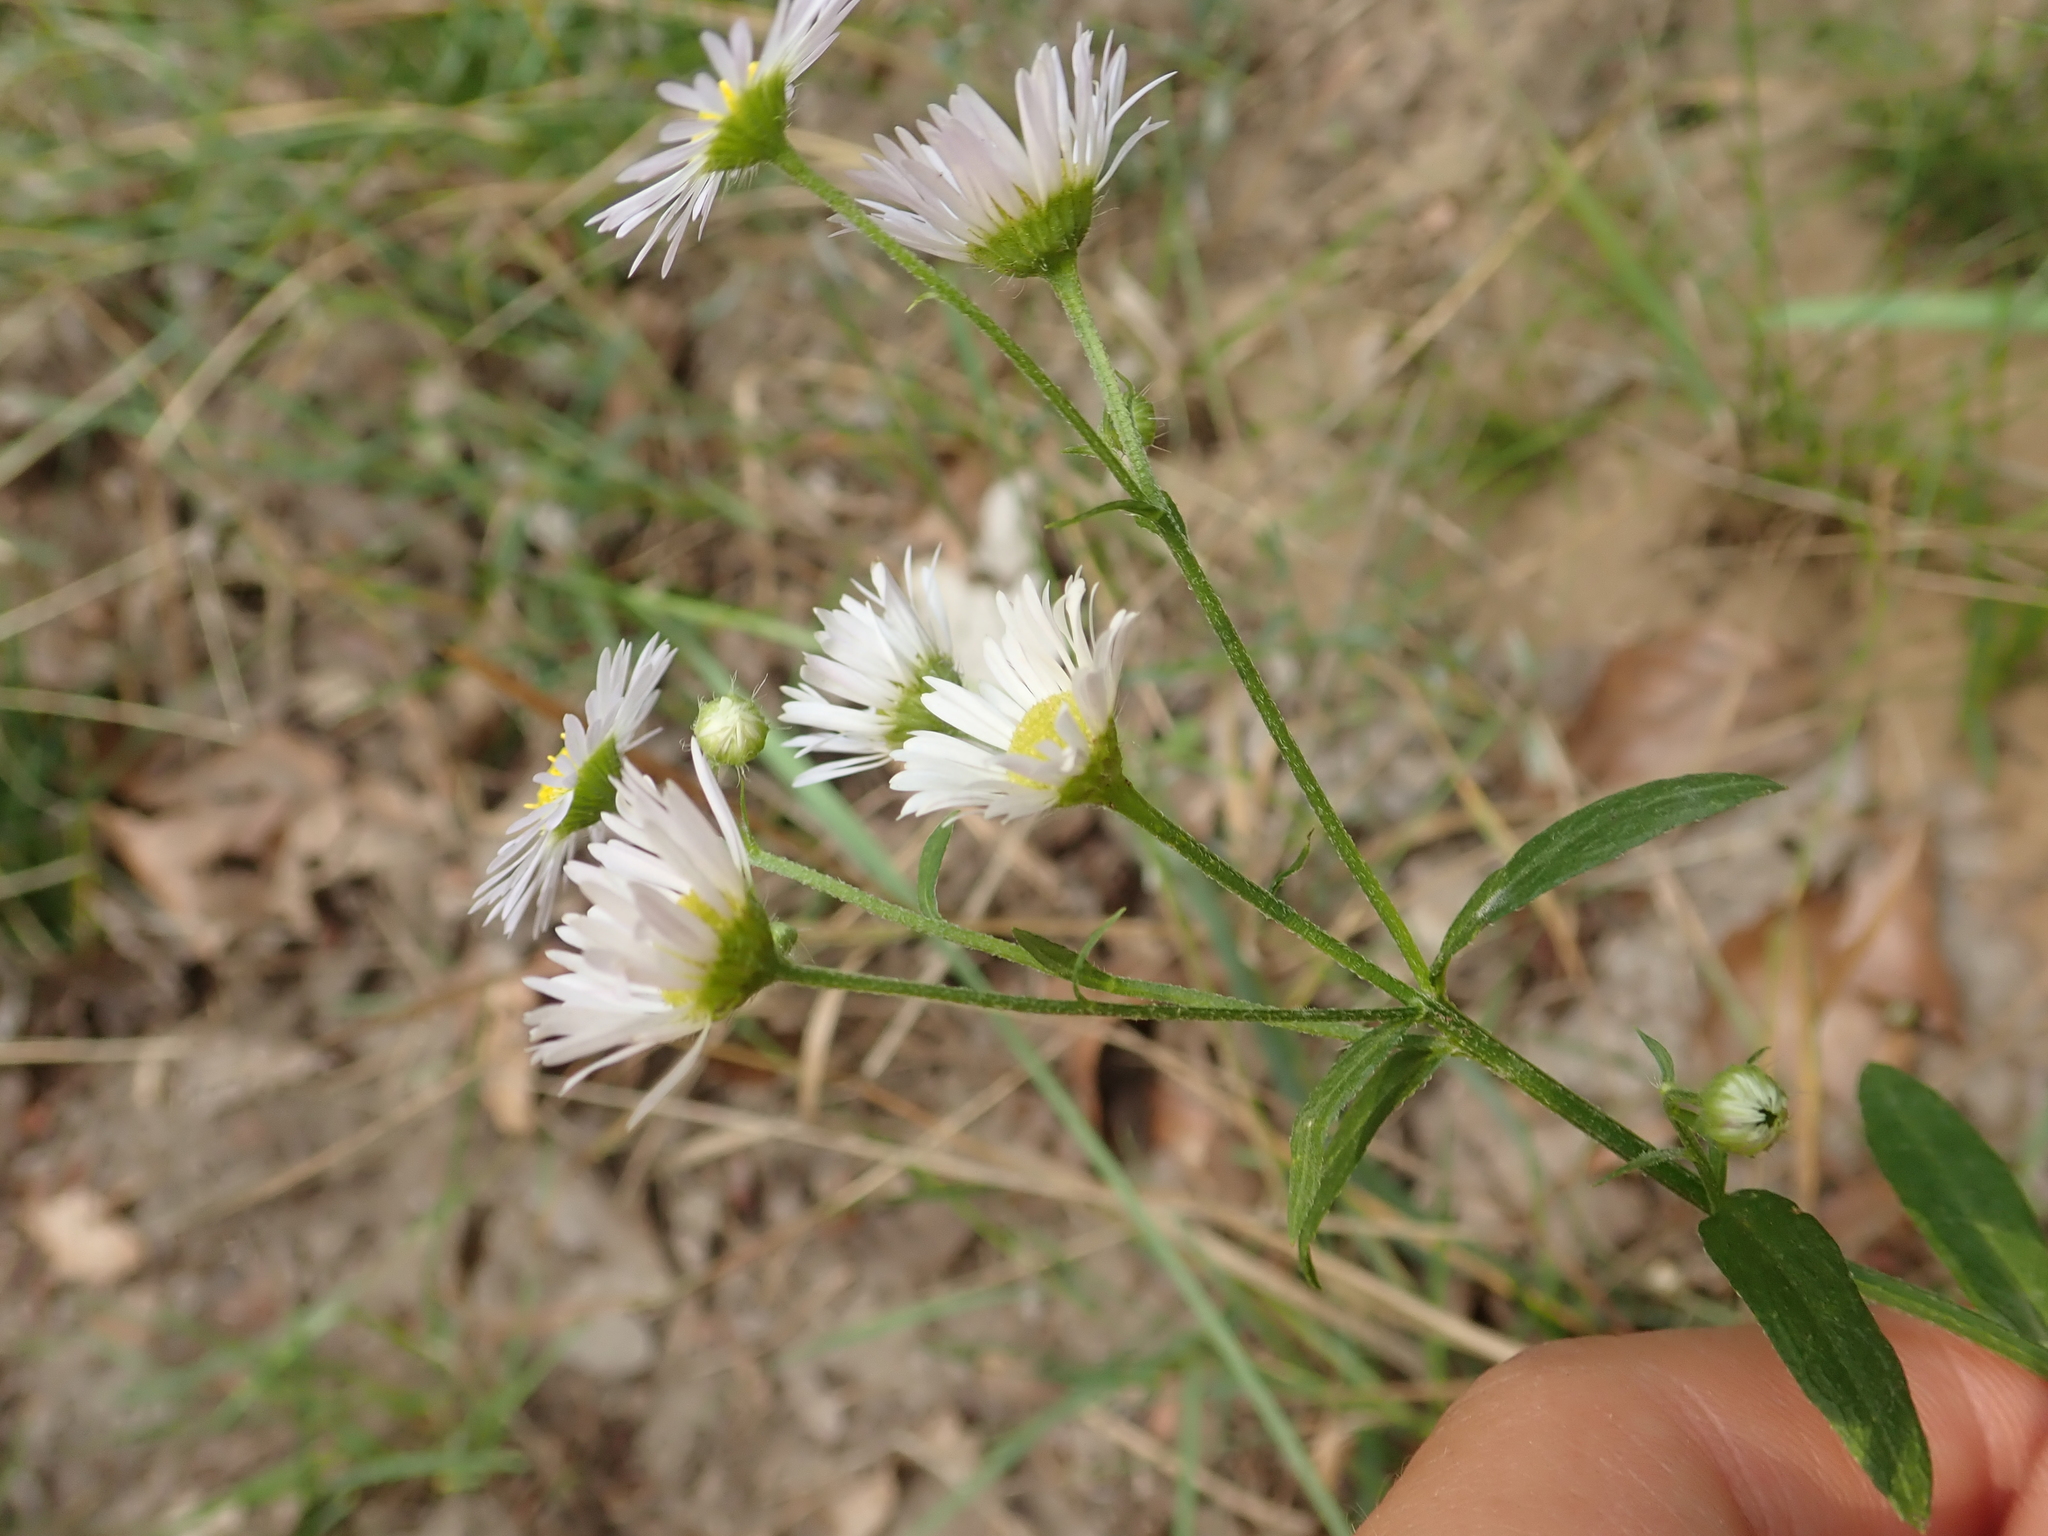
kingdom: Plantae
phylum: Tracheophyta
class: Magnoliopsida
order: Asterales
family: Asteraceae
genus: Erigeron
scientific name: Erigeron annuus
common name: Tall fleabane
